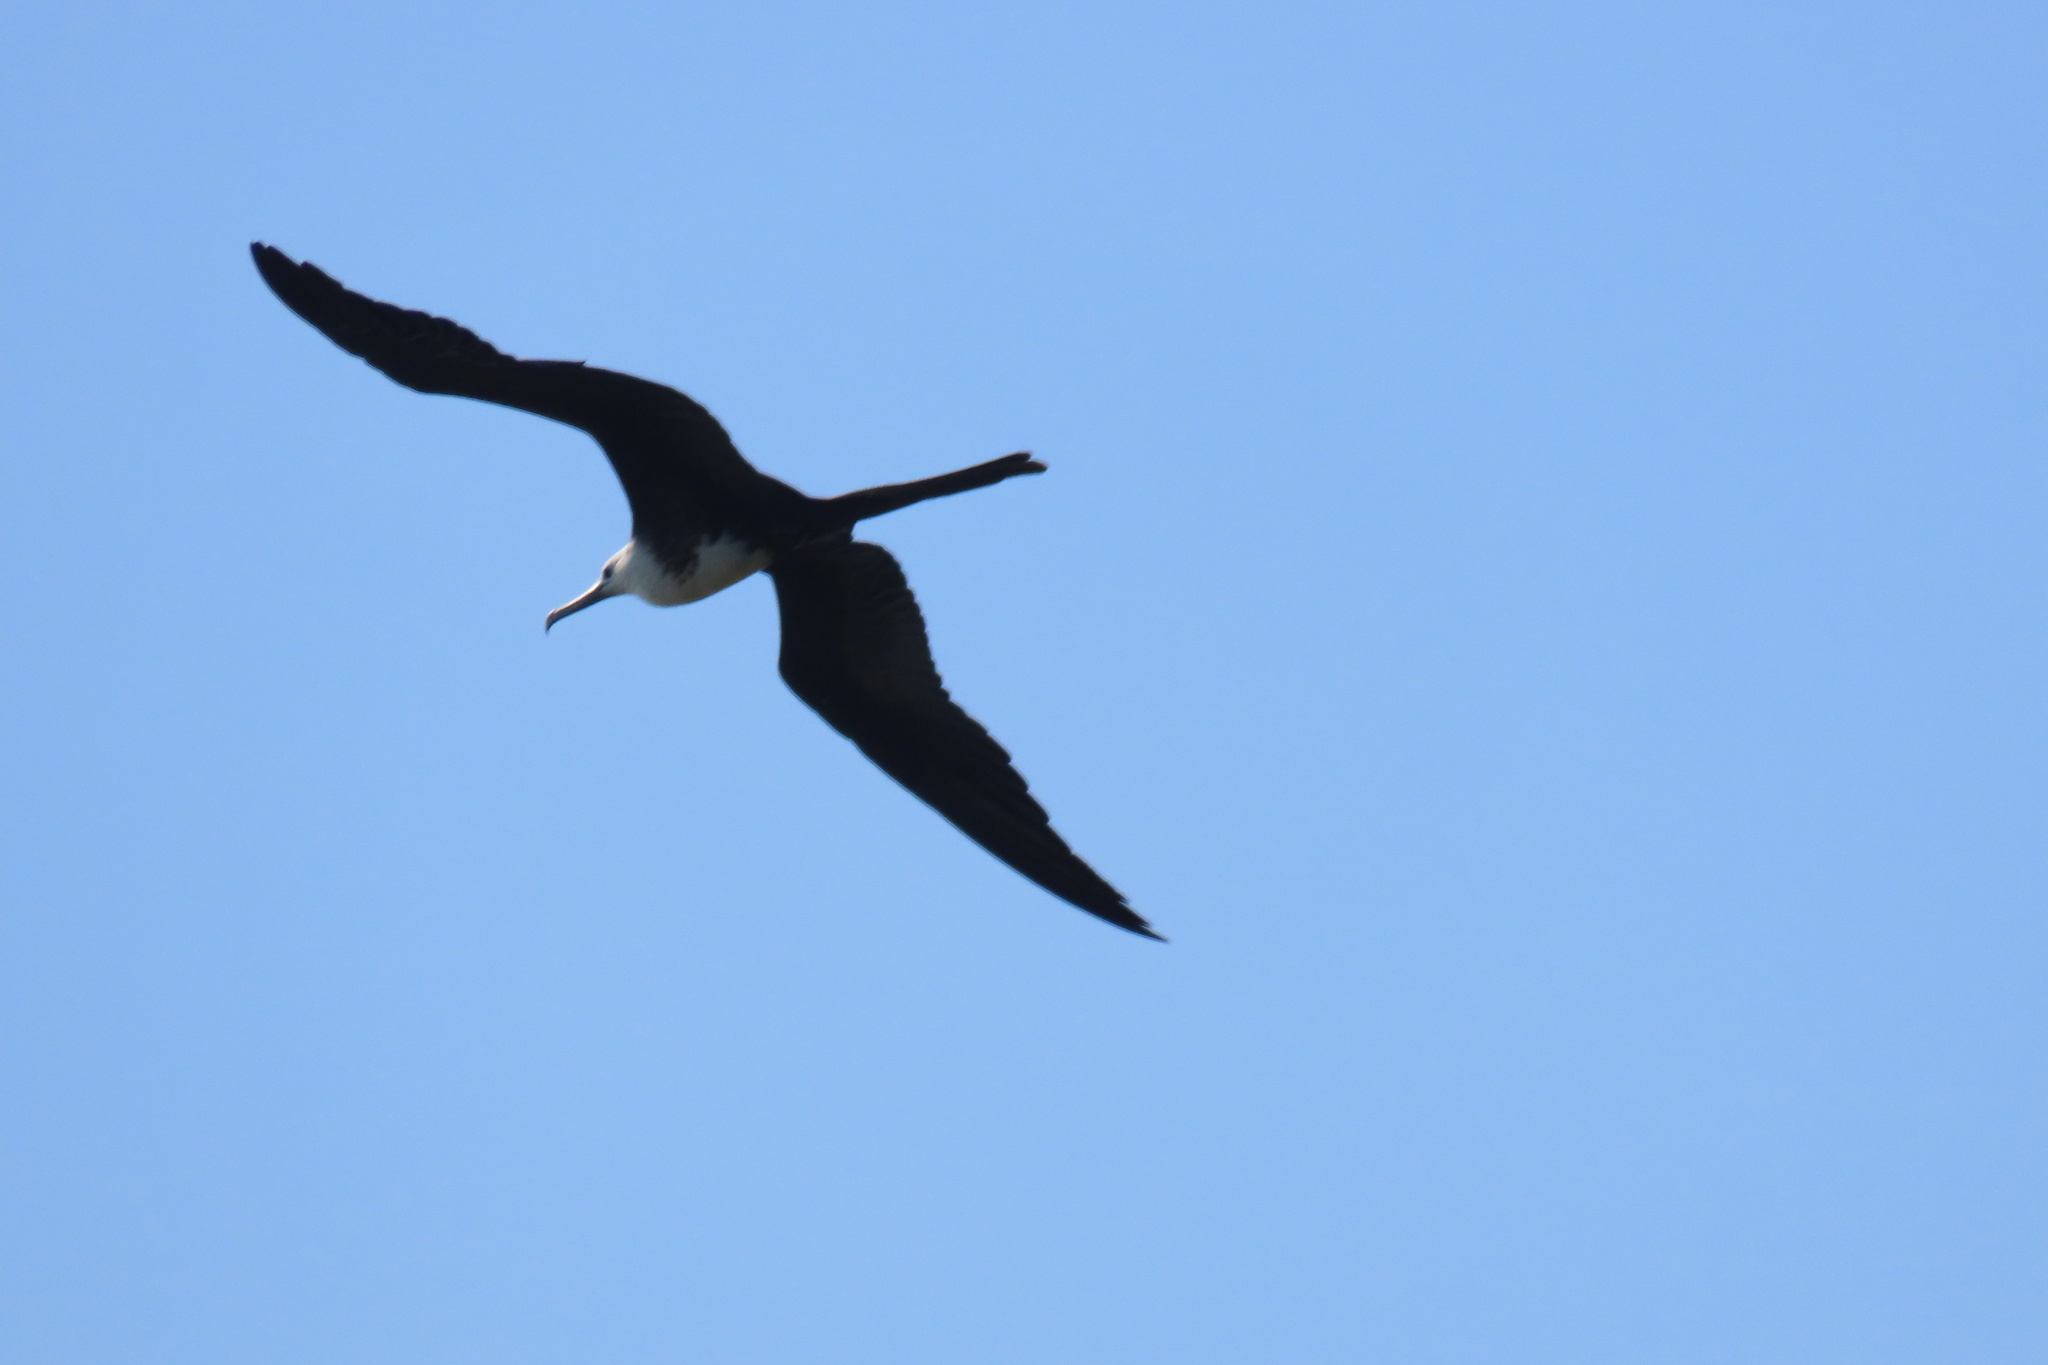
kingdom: Animalia
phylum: Chordata
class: Aves
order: Suliformes
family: Fregatidae
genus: Fregata
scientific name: Fregata magnificens
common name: Magnificent frigatebird
